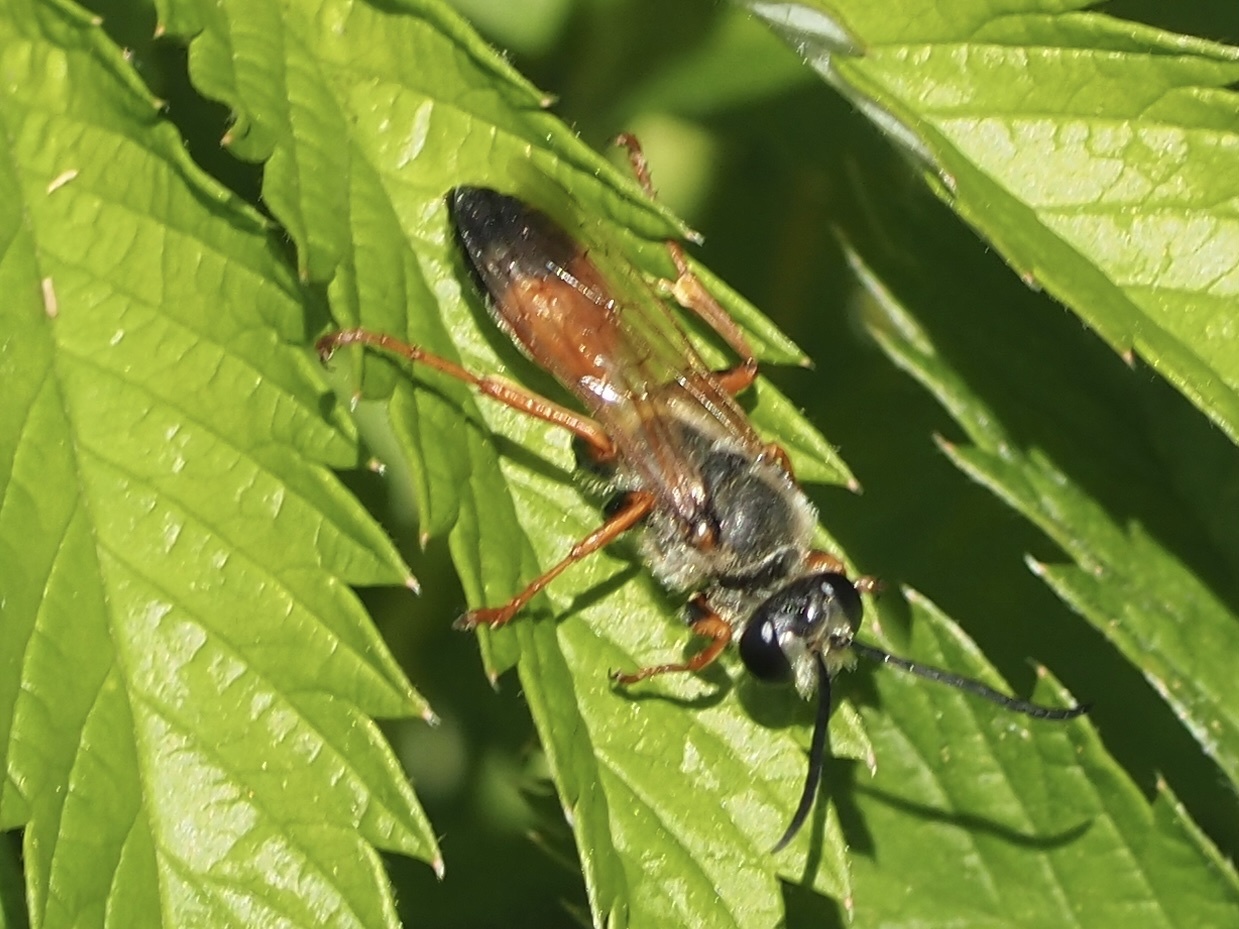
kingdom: Animalia
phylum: Arthropoda
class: Insecta
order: Hymenoptera
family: Sphecidae
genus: Sphex
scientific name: Sphex ichneumoneus
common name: Great golden digger wasp
